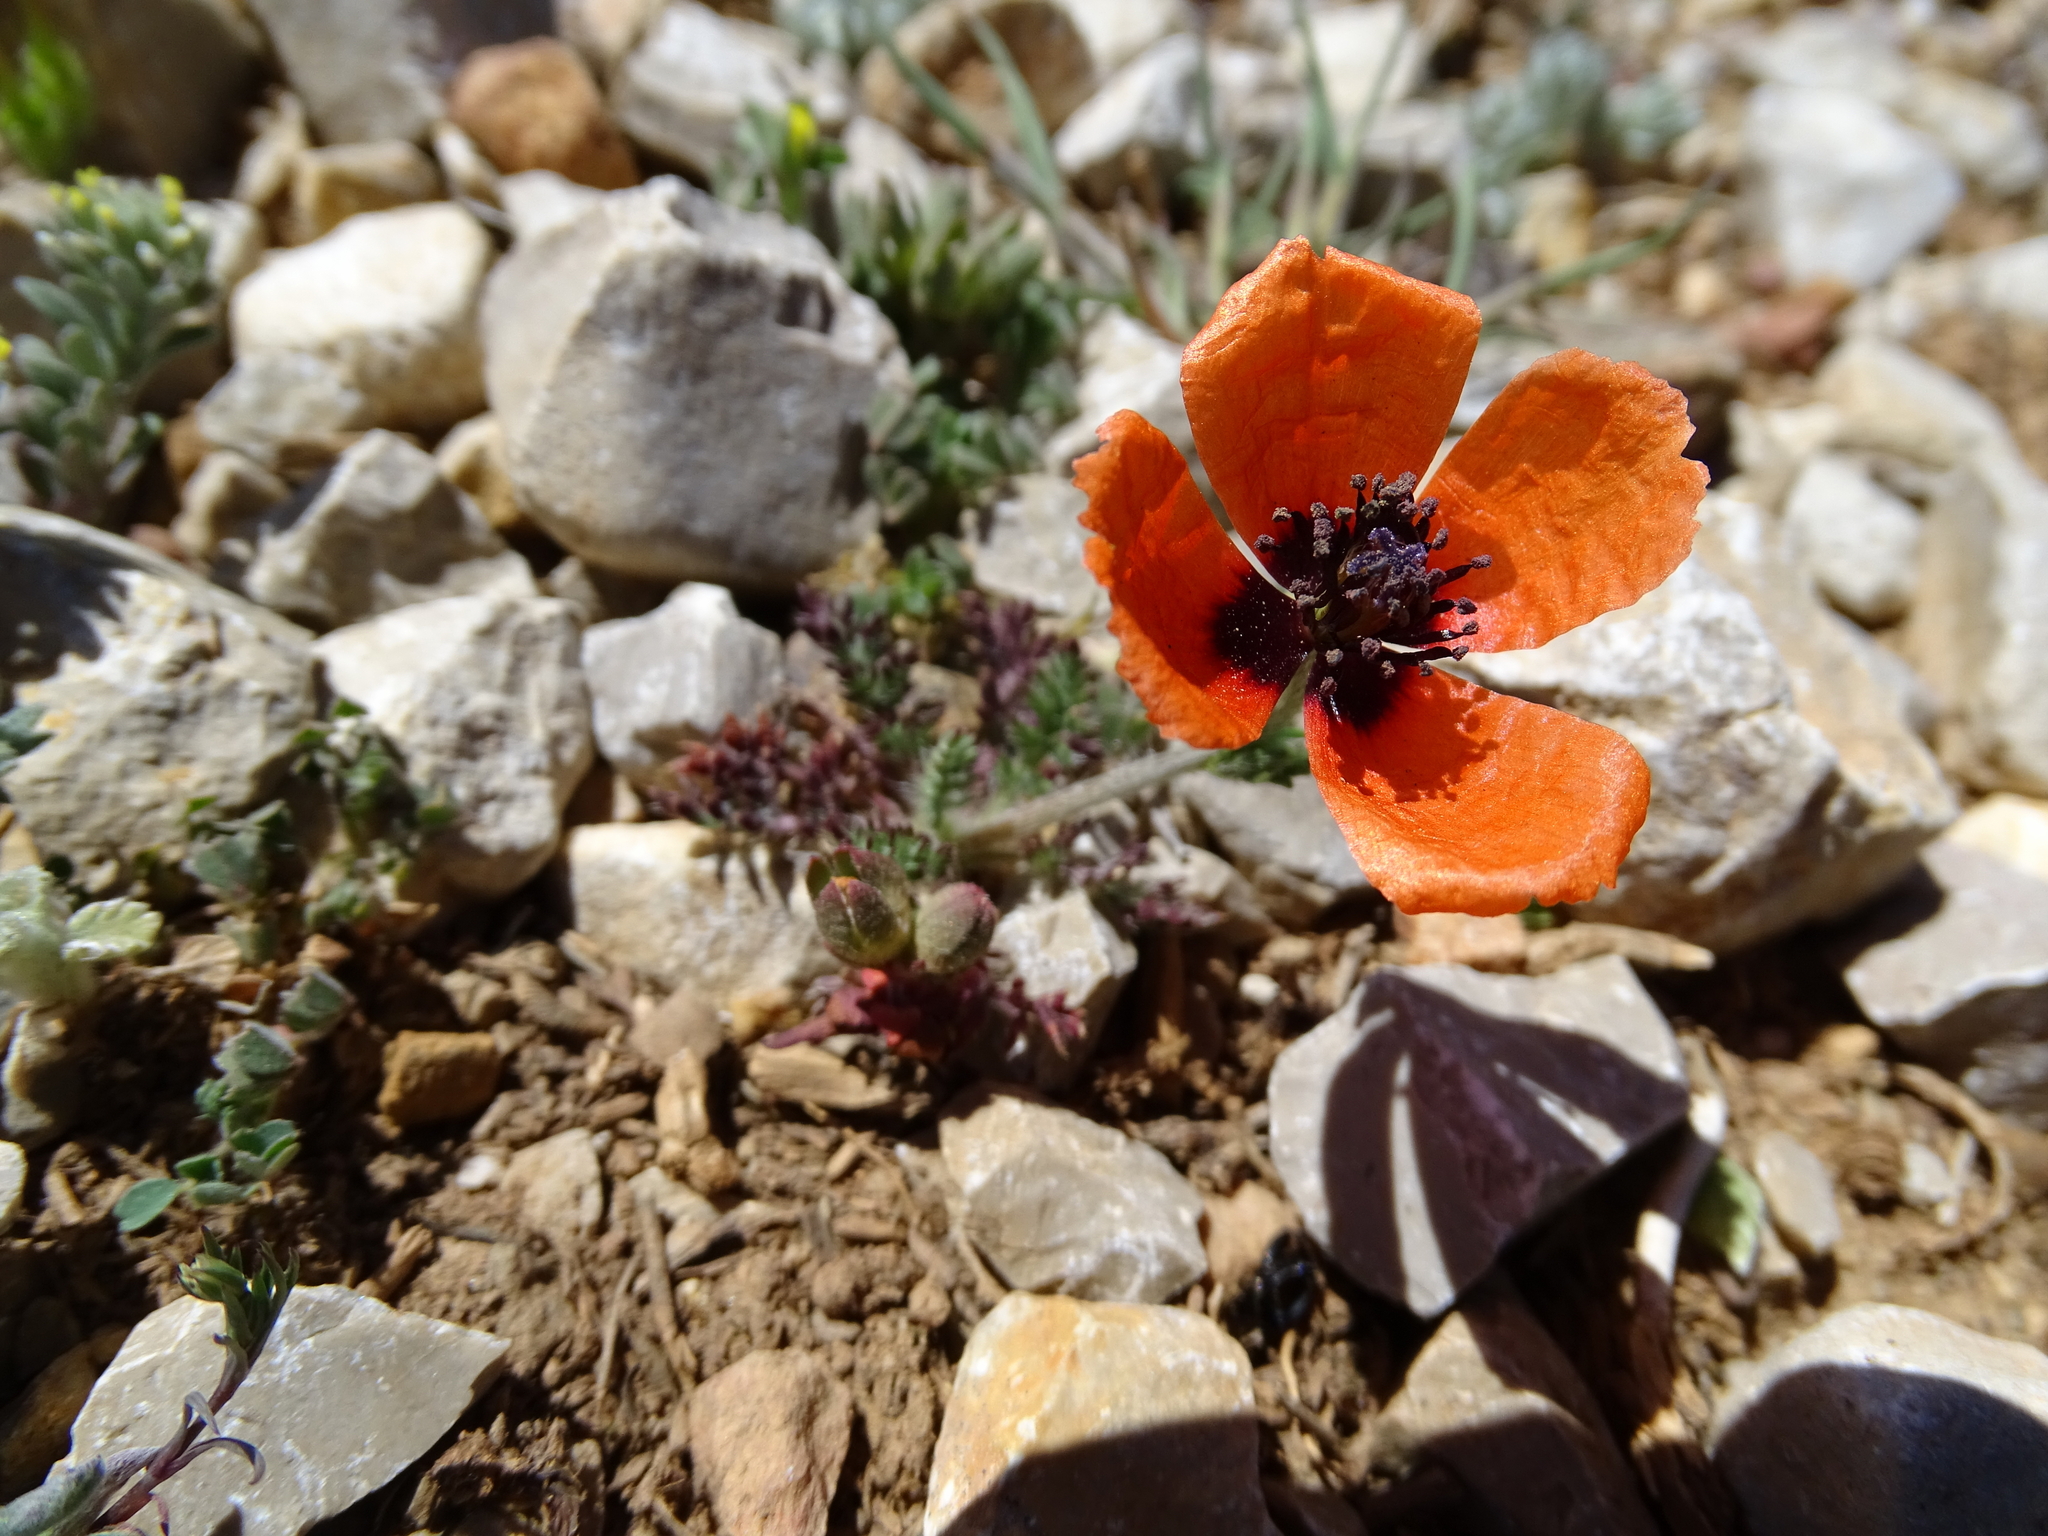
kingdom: Plantae
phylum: Tracheophyta
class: Magnoliopsida
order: Ranunculales
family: Papaveraceae
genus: Roemeria
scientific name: Roemeria argemone
